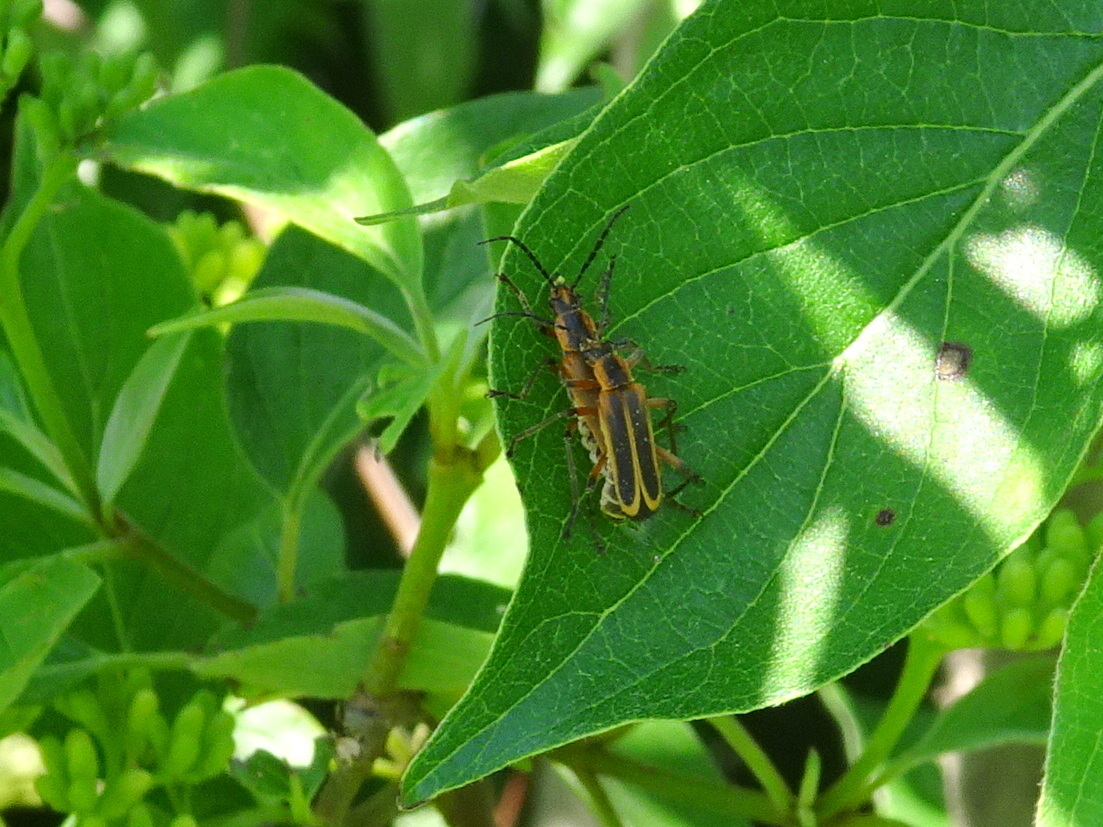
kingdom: Animalia
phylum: Arthropoda
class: Insecta
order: Coleoptera
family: Cantharidae
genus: Chauliognathus
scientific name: Chauliognathus marginatus
